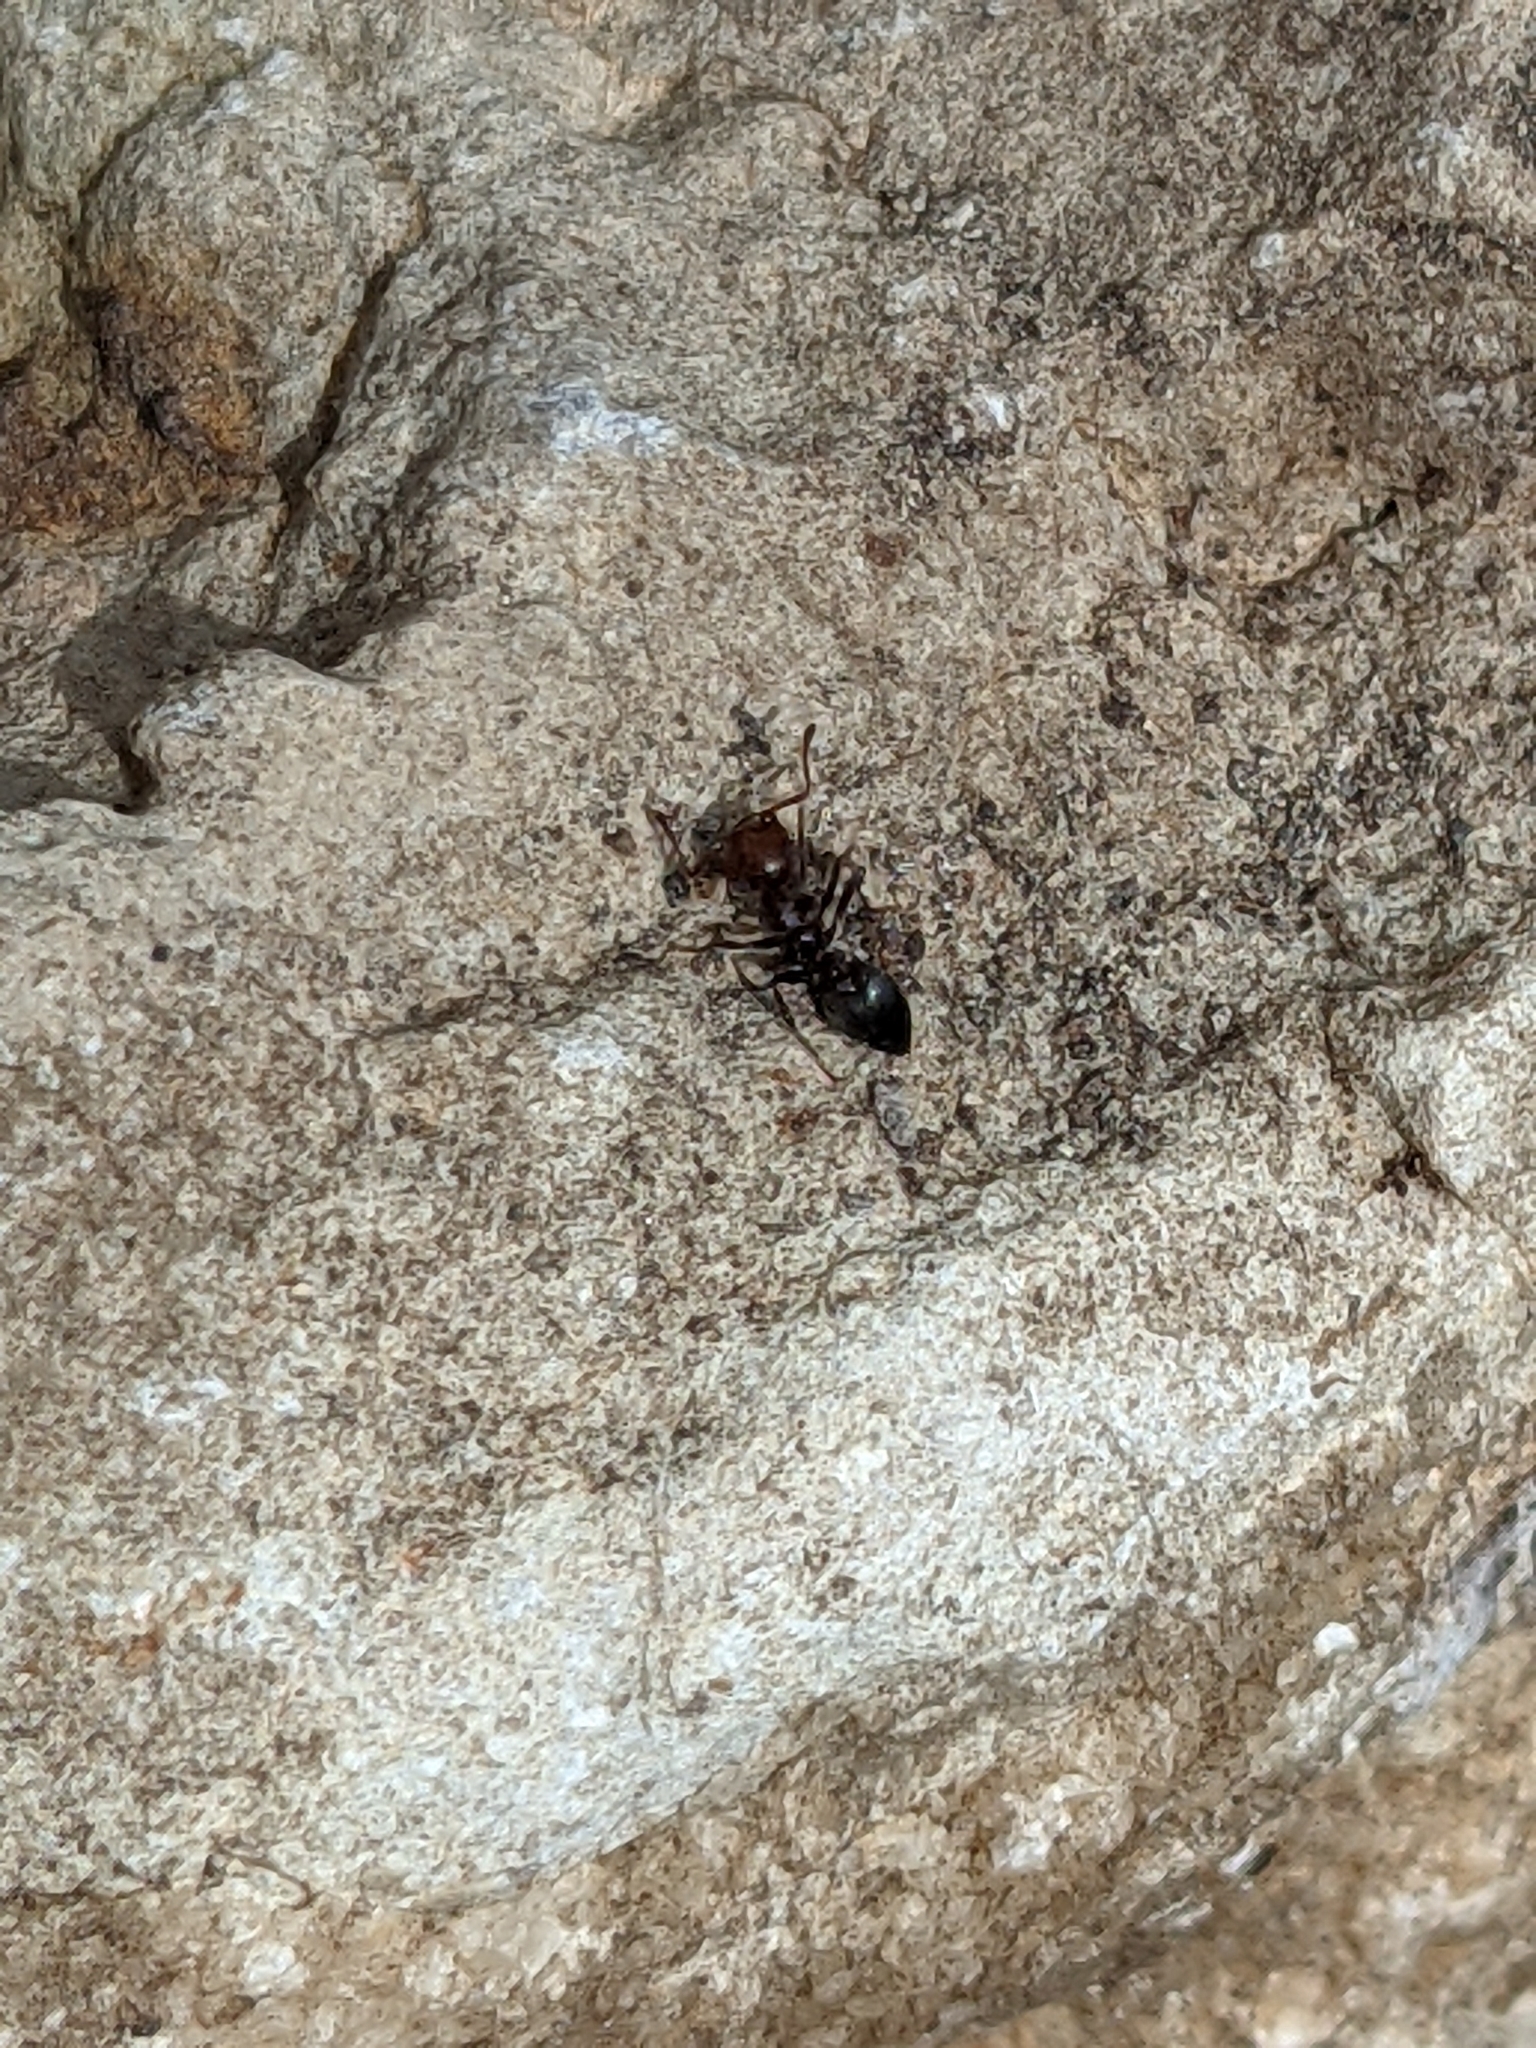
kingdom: Animalia
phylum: Arthropoda
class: Insecta
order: Hymenoptera
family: Formicidae
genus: Crematogaster
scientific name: Crematogaster scutellaris
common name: Fourmi du liège
